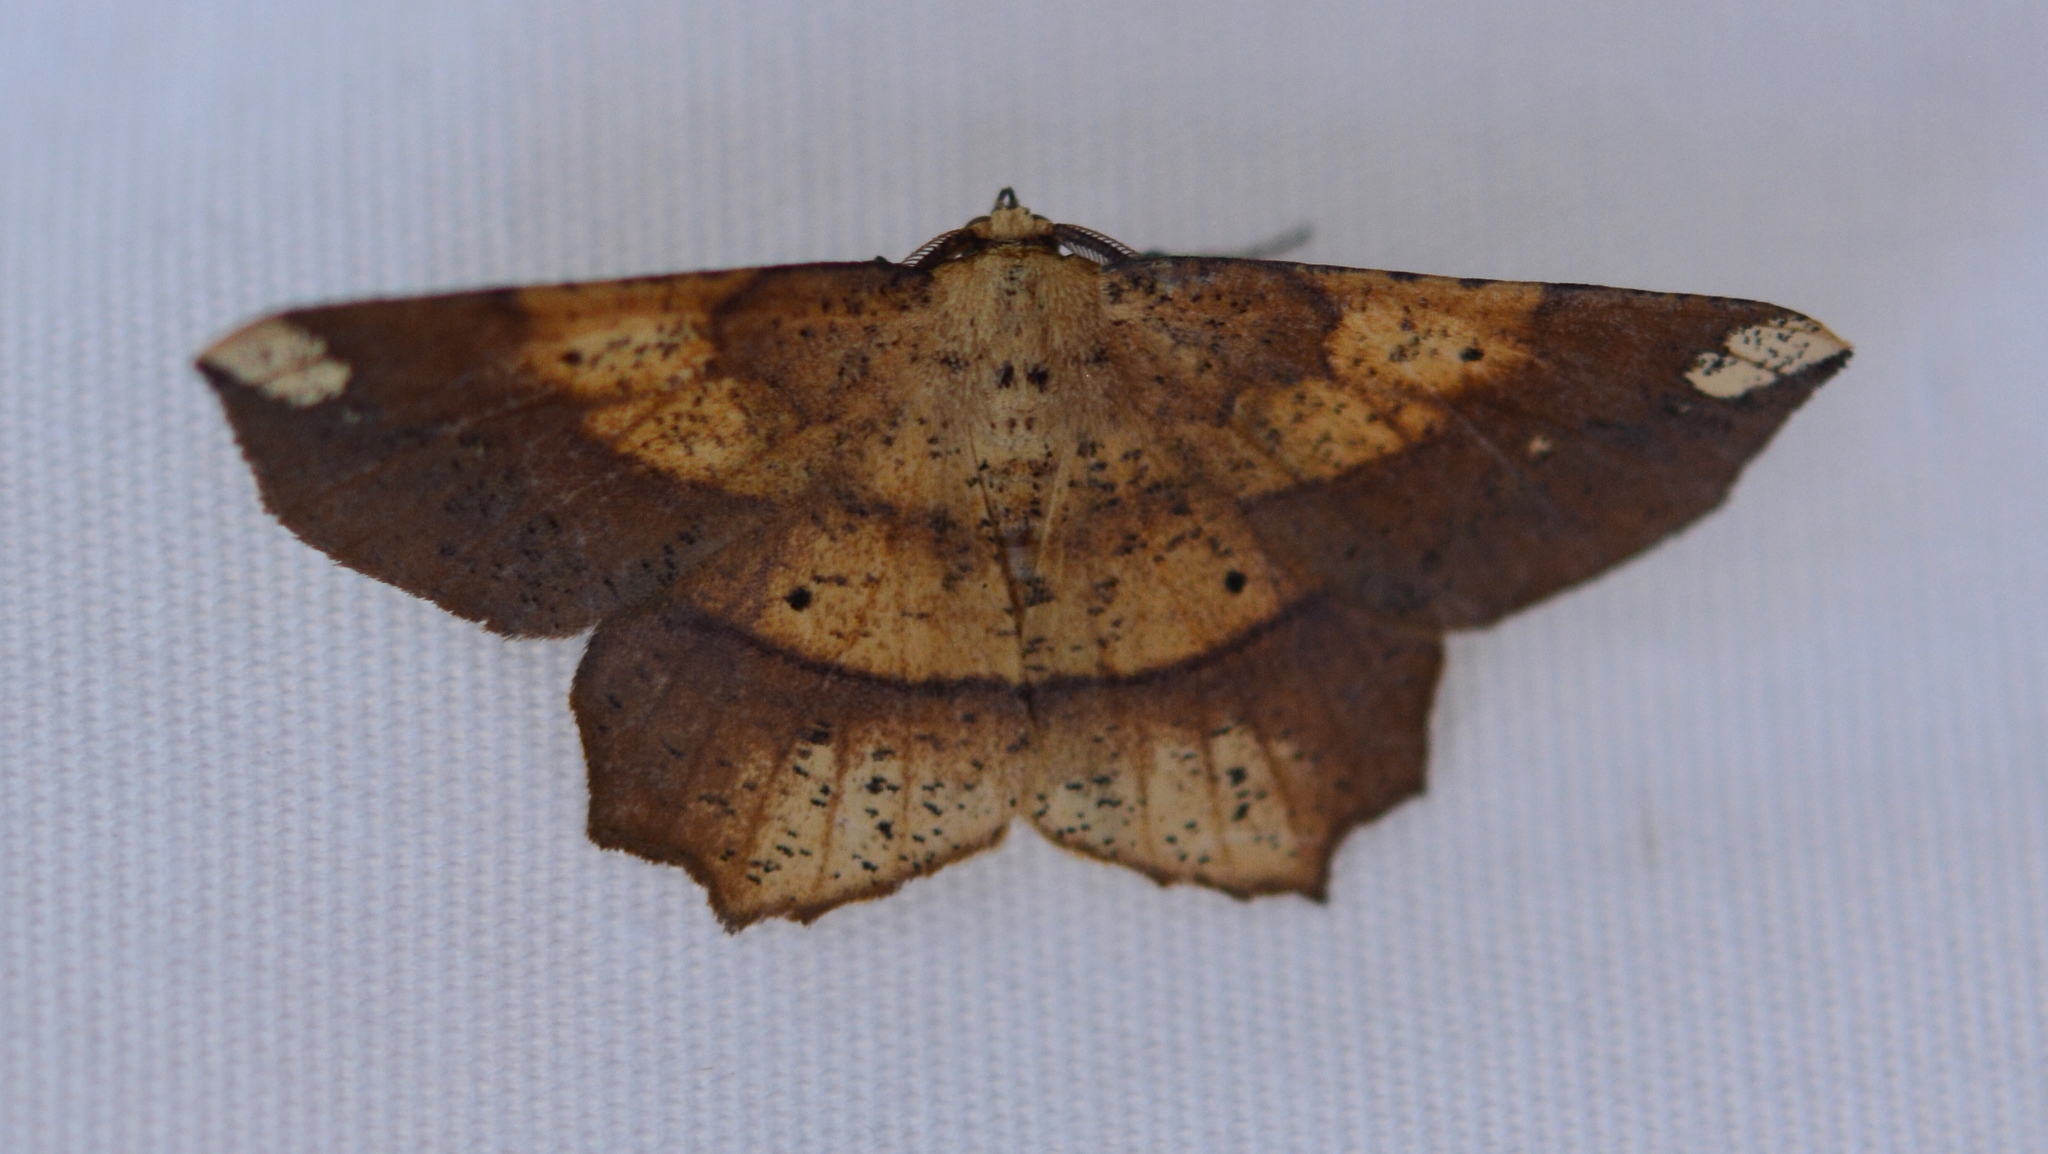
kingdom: Animalia
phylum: Arthropoda
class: Insecta
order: Lepidoptera
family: Geometridae
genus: Euchlaena
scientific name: Euchlaena amoenaria
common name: Deep yellow euchlaena
